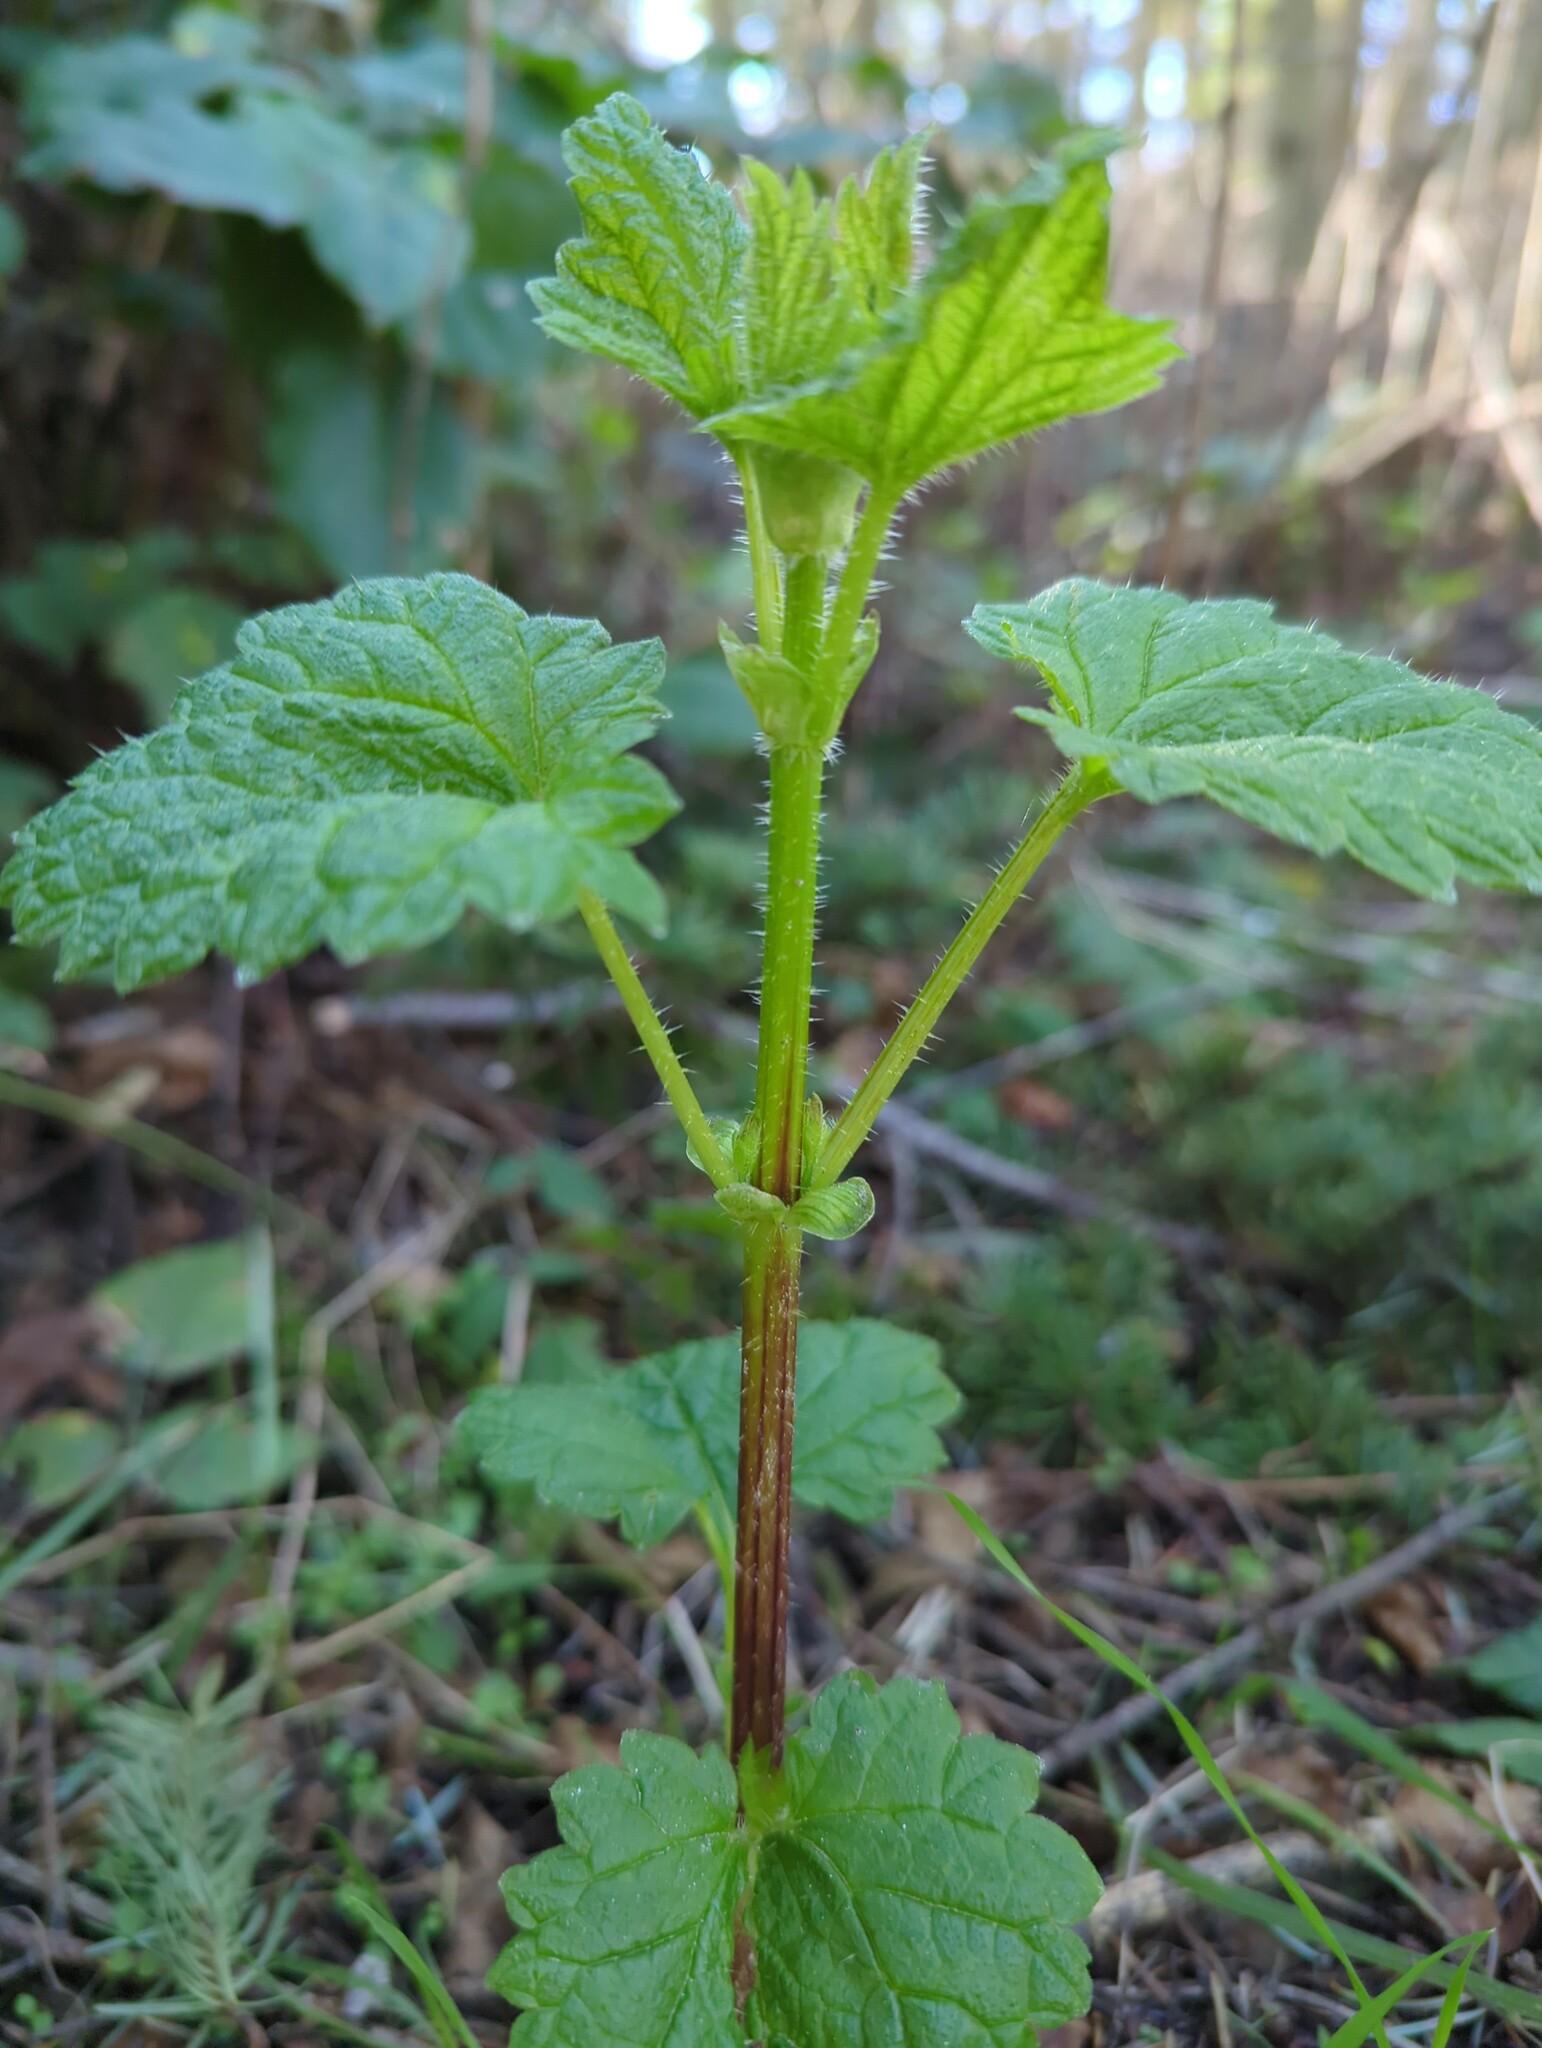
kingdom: Plantae
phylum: Tracheophyta
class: Magnoliopsida
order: Rosales
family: Urticaceae
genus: Urtica
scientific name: Urtica gracilis
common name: Slender stinging nettle
